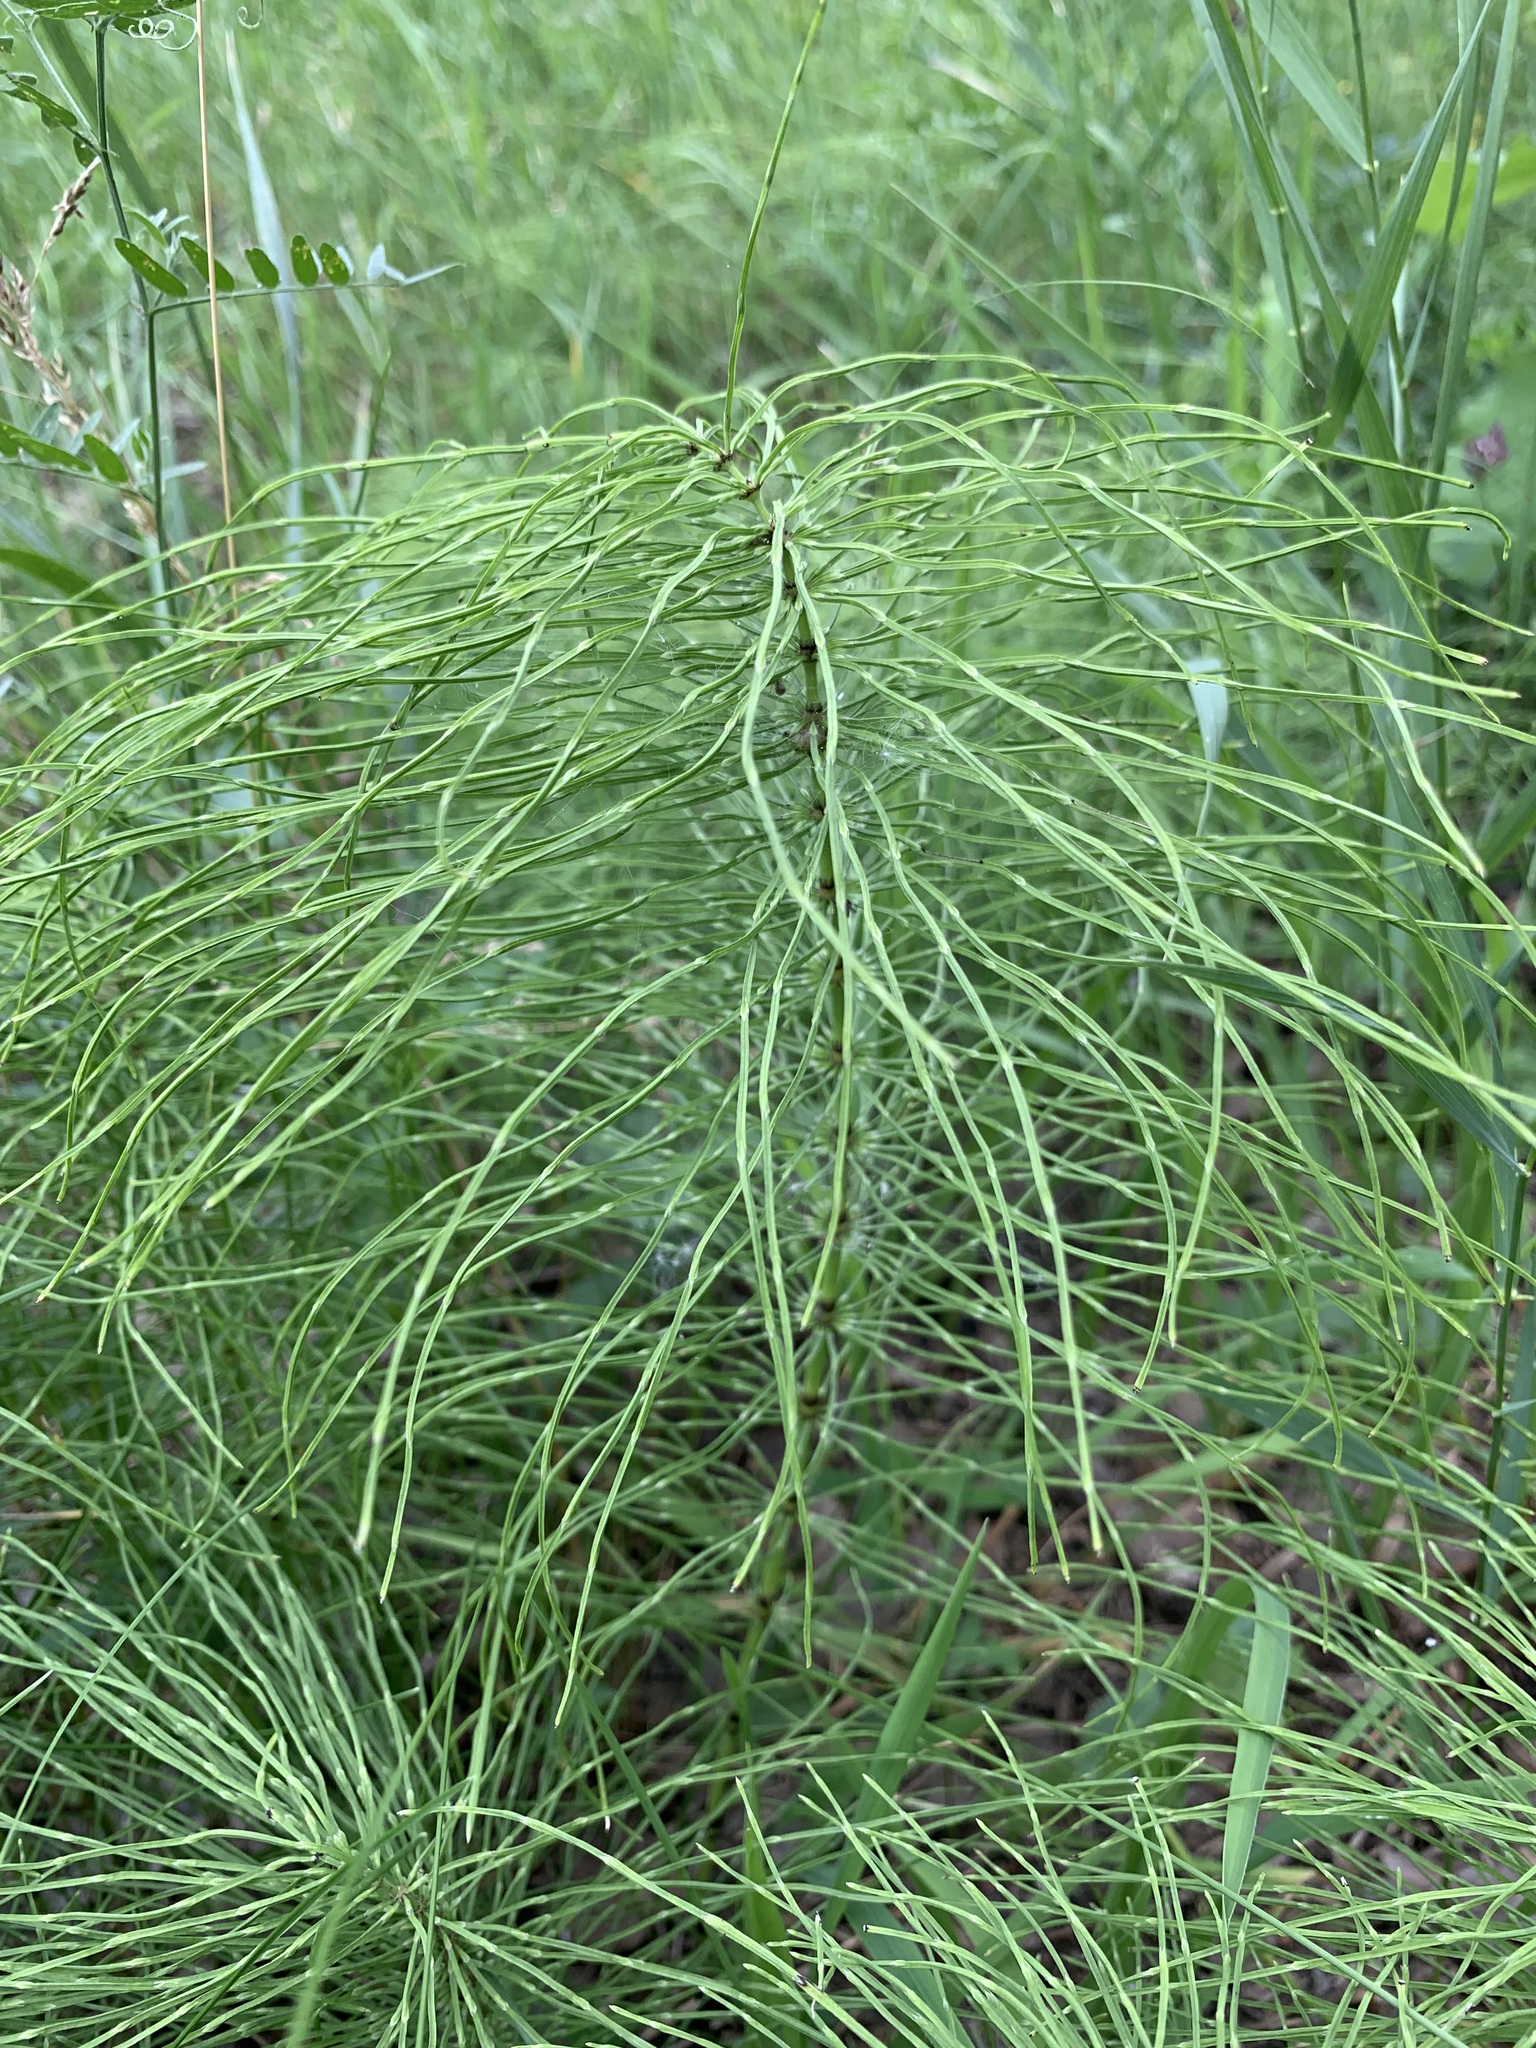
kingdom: Plantae
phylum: Tracheophyta
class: Polypodiopsida
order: Equisetales
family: Equisetaceae
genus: Equisetum
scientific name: Equisetum pratense
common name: Meadow horsetail
